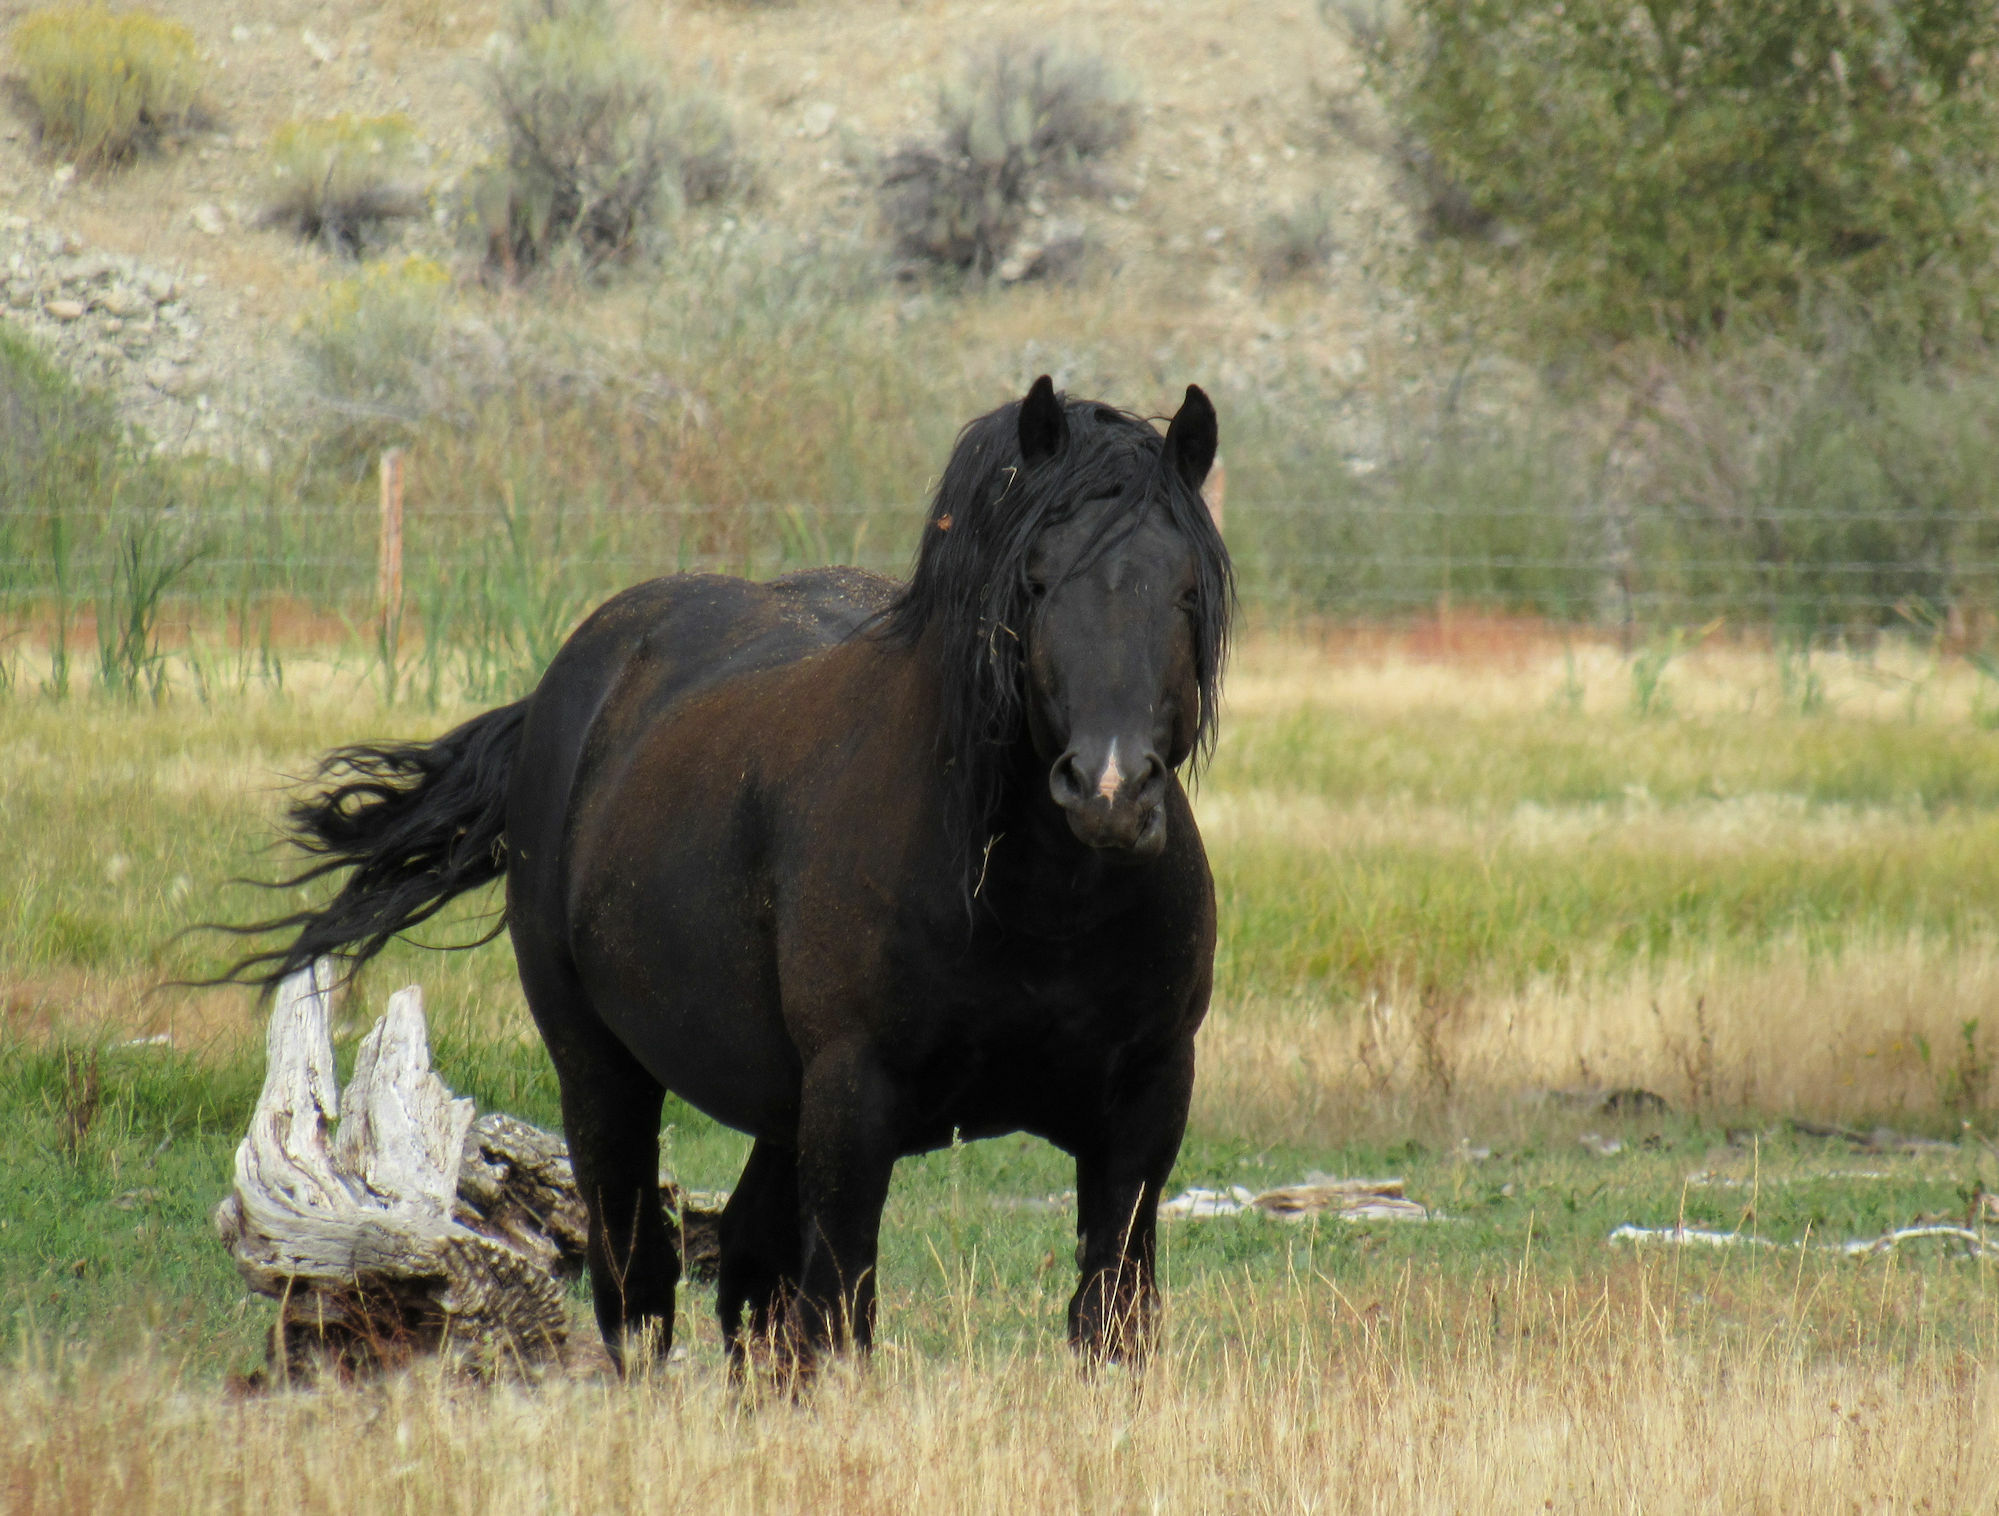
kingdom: Animalia
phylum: Chordata
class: Mammalia
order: Perissodactyla
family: Equidae
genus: Equus
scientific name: Equus caballus
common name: Horse
